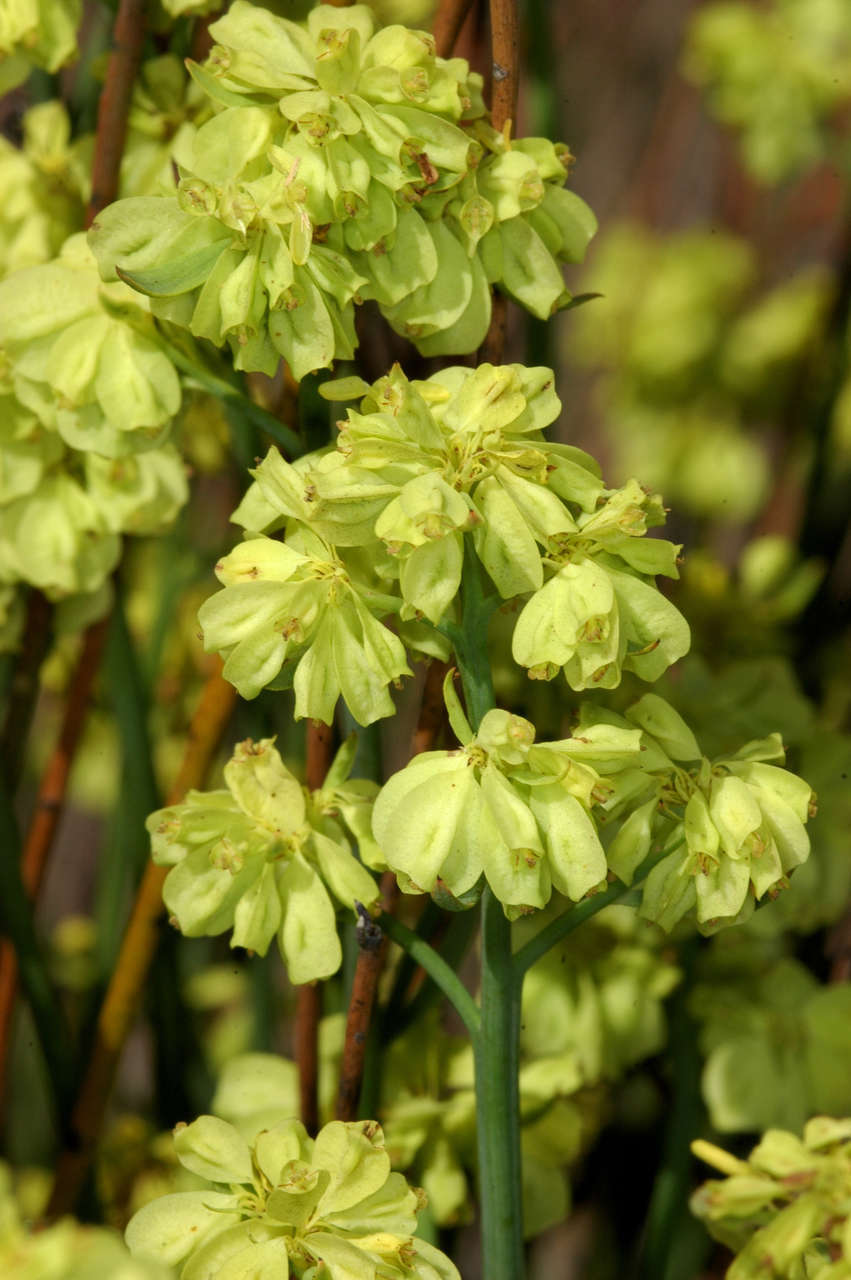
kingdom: Plantae
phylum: Tracheophyta
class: Magnoliopsida
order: Saxifragales
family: Haloragaceae
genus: Glischrocaryon
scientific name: Glischrocaryon behrii
